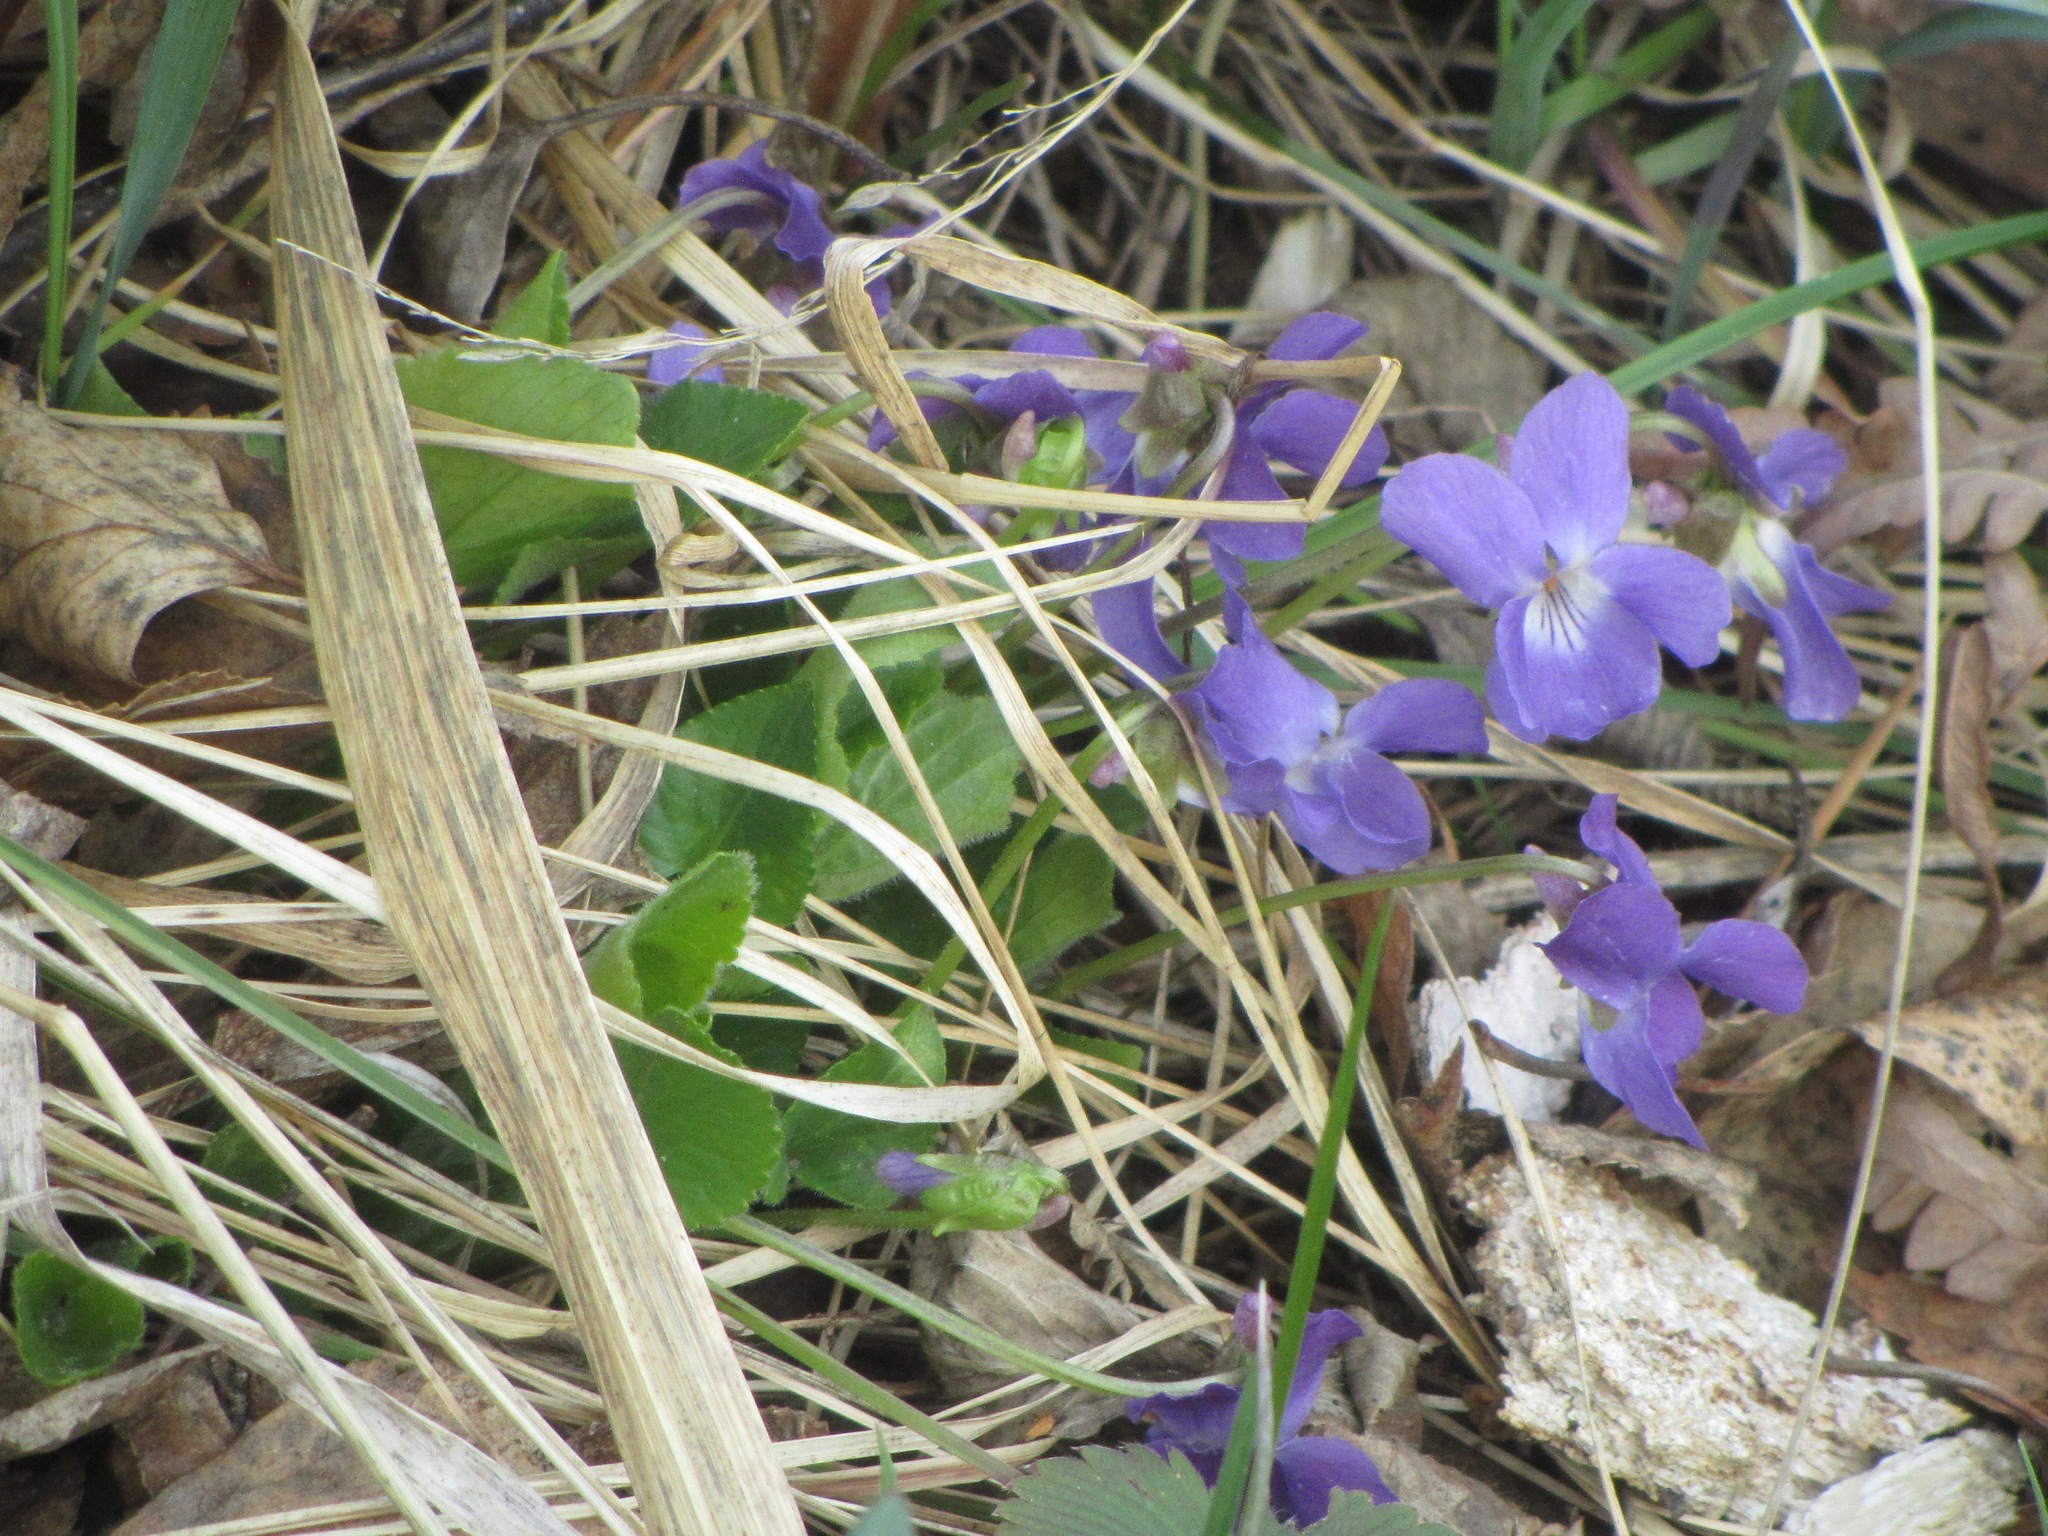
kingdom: Plantae
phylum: Tracheophyta
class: Magnoliopsida
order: Malpighiales
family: Violaceae
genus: Viola
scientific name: Viola hirta
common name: Hairy violet
